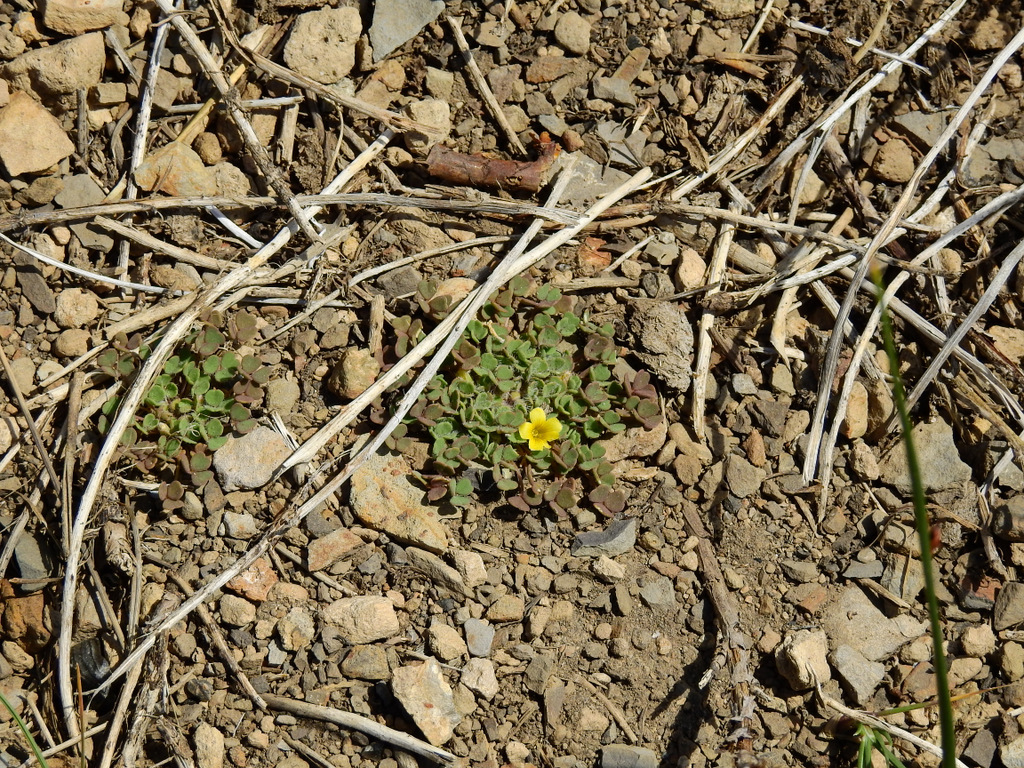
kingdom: Plantae
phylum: Tracheophyta
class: Magnoliopsida
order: Oxalidales
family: Oxalidaceae
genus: Oxalis
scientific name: Oxalis compacta
